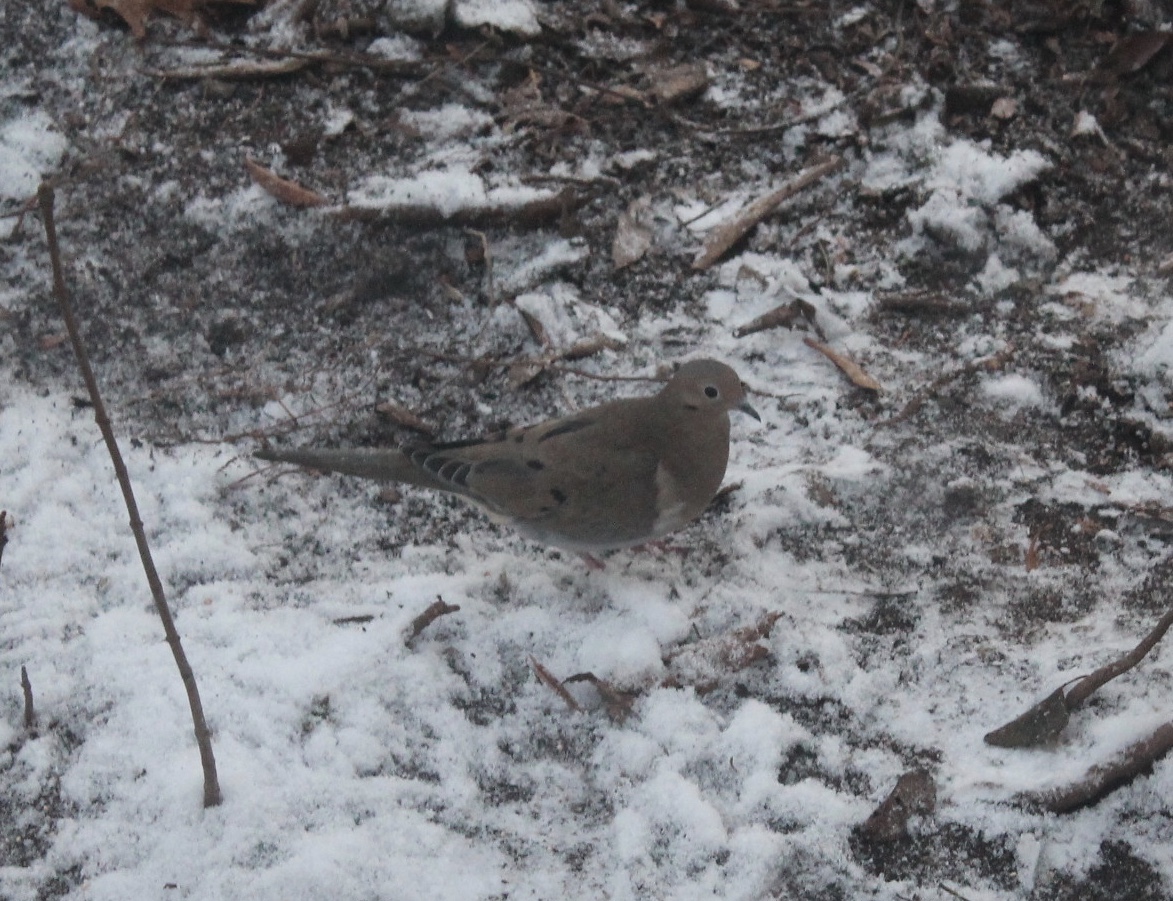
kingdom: Animalia
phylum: Chordata
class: Aves
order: Columbiformes
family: Columbidae
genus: Zenaida
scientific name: Zenaida macroura
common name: Mourning dove
